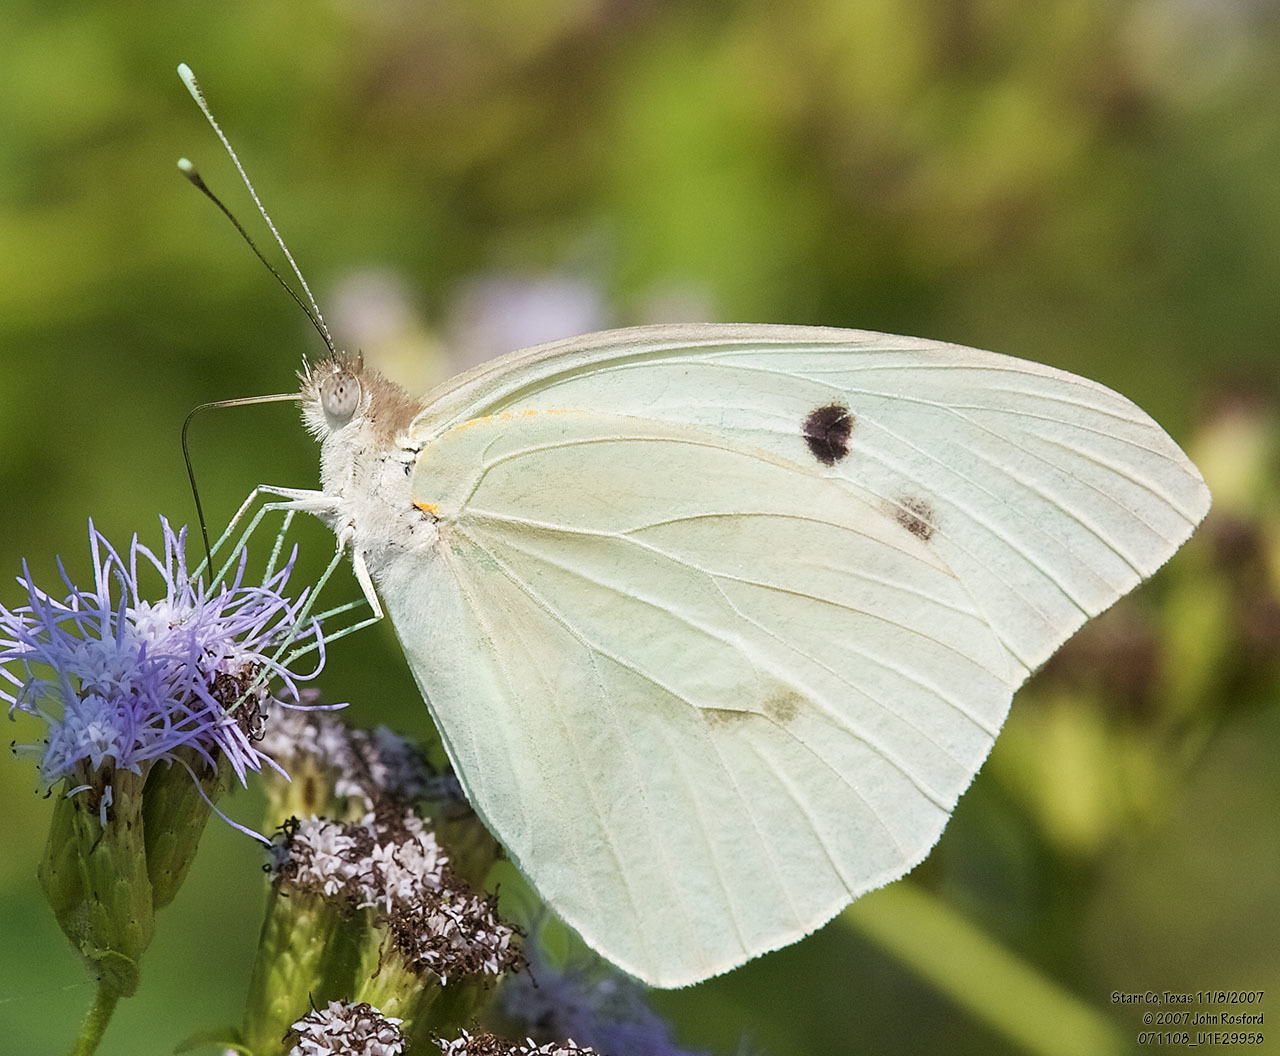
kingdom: Animalia
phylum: Arthropoda
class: Insecta
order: Lepidoptera
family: Pieridae
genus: Ganyra
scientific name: Ganyra josephina
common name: Giant white
